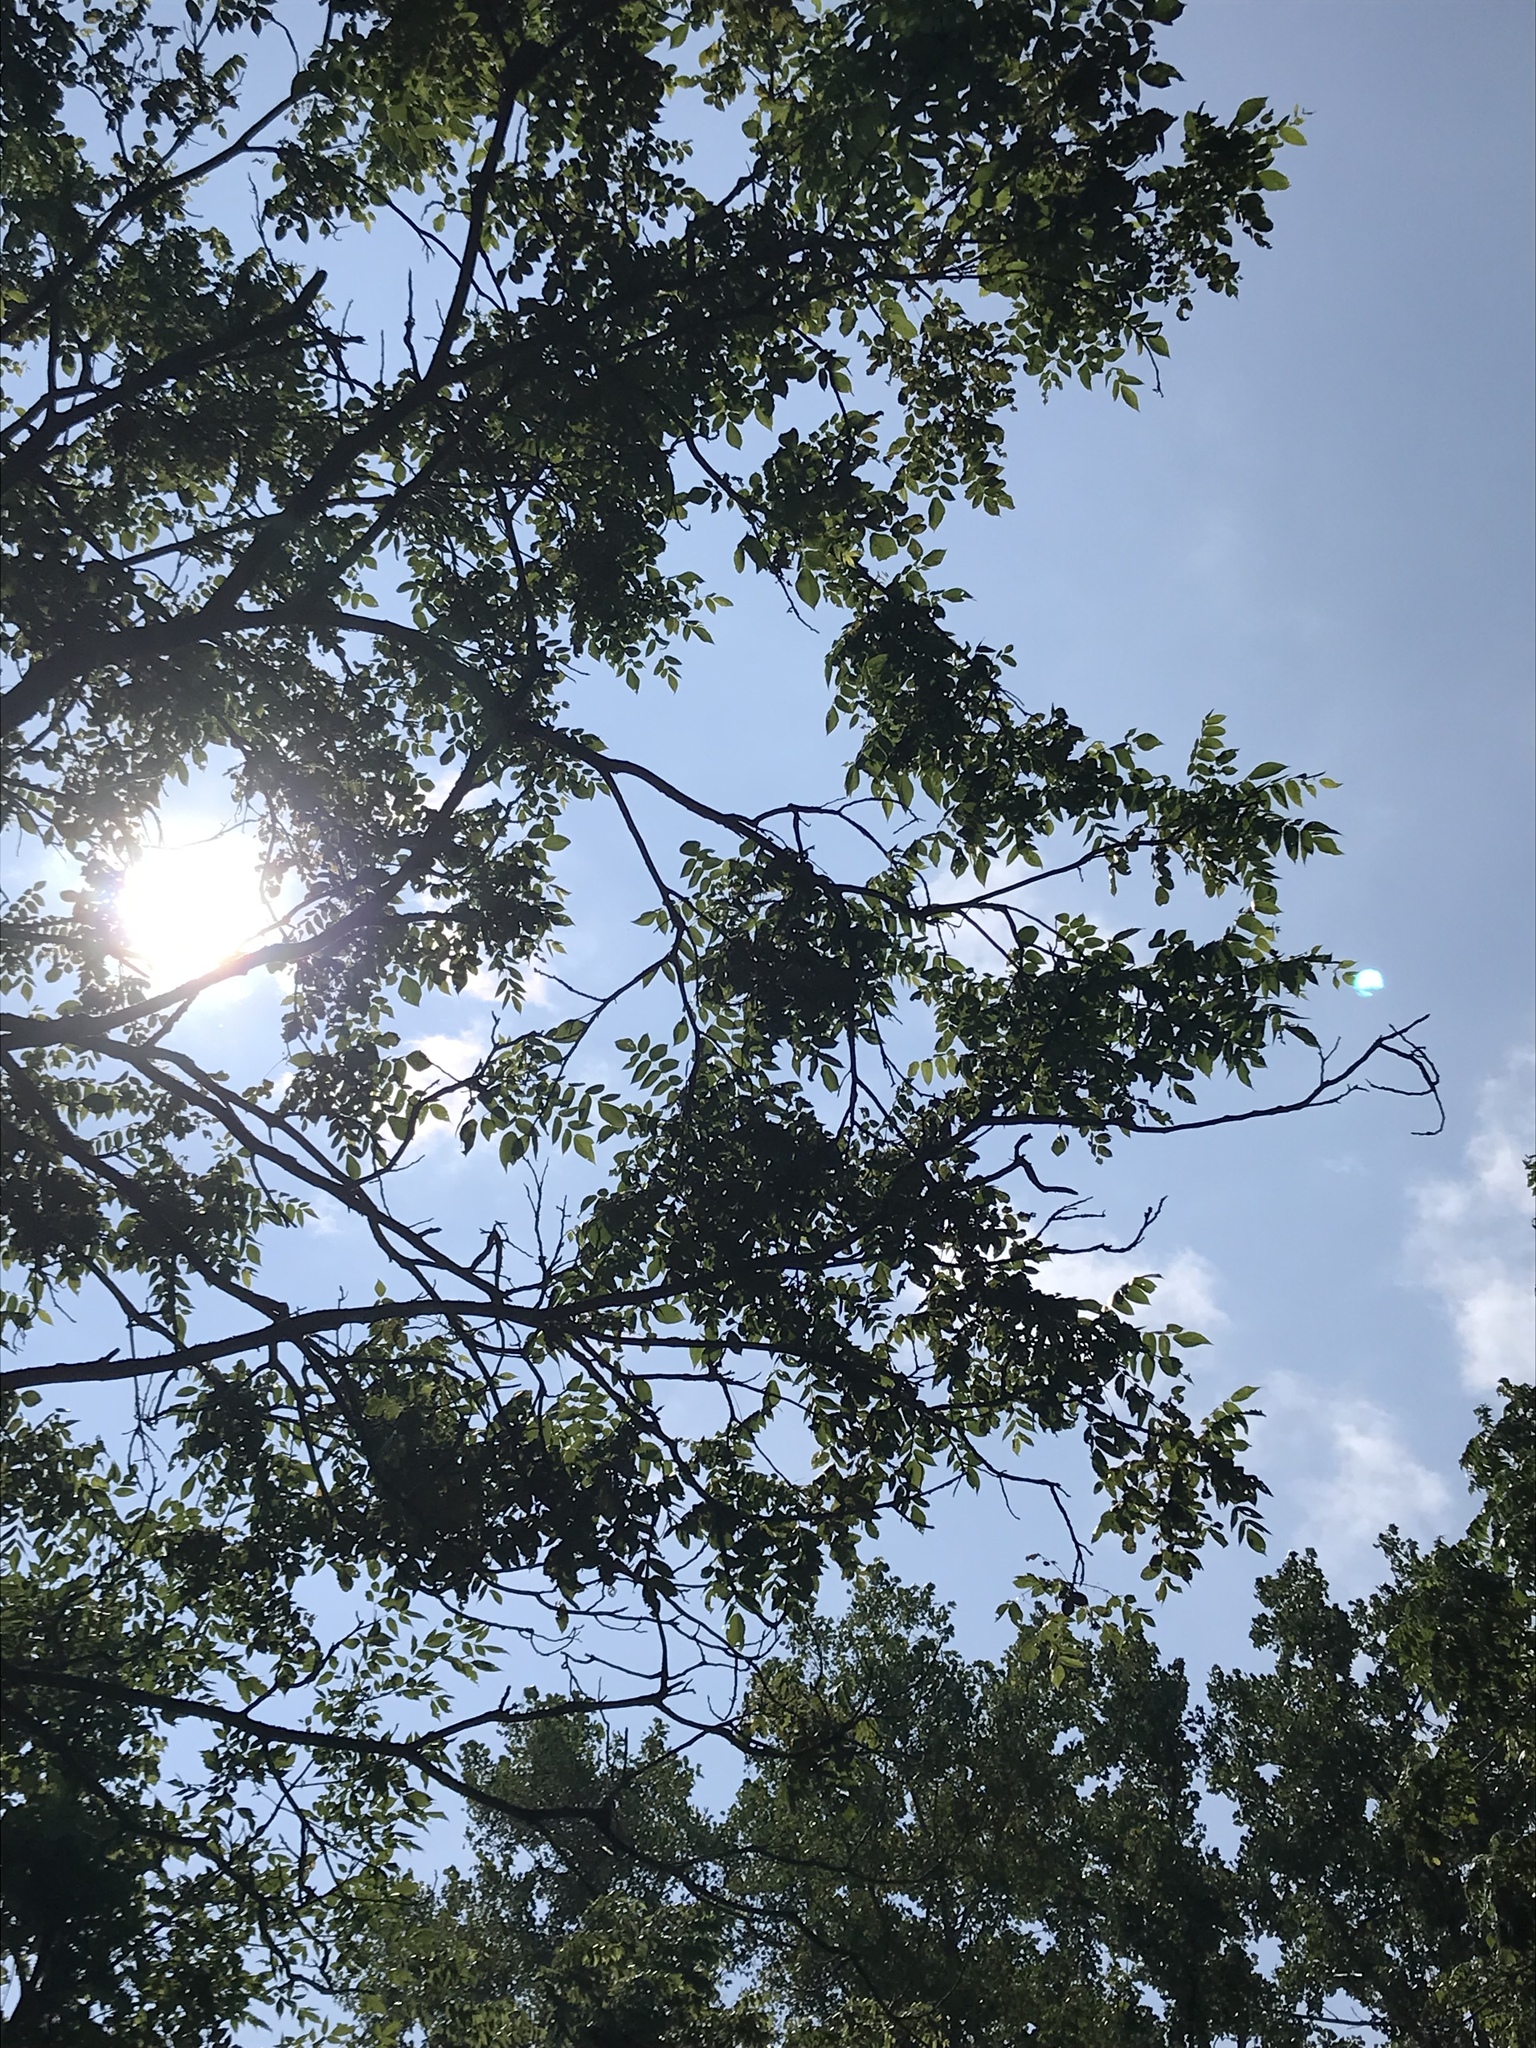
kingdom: Plantae
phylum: Tracheophyta
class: Magnoliopsida
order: Fagales
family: Juglandaceae
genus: Juglans
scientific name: Juglans cinerea
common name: Butternut
